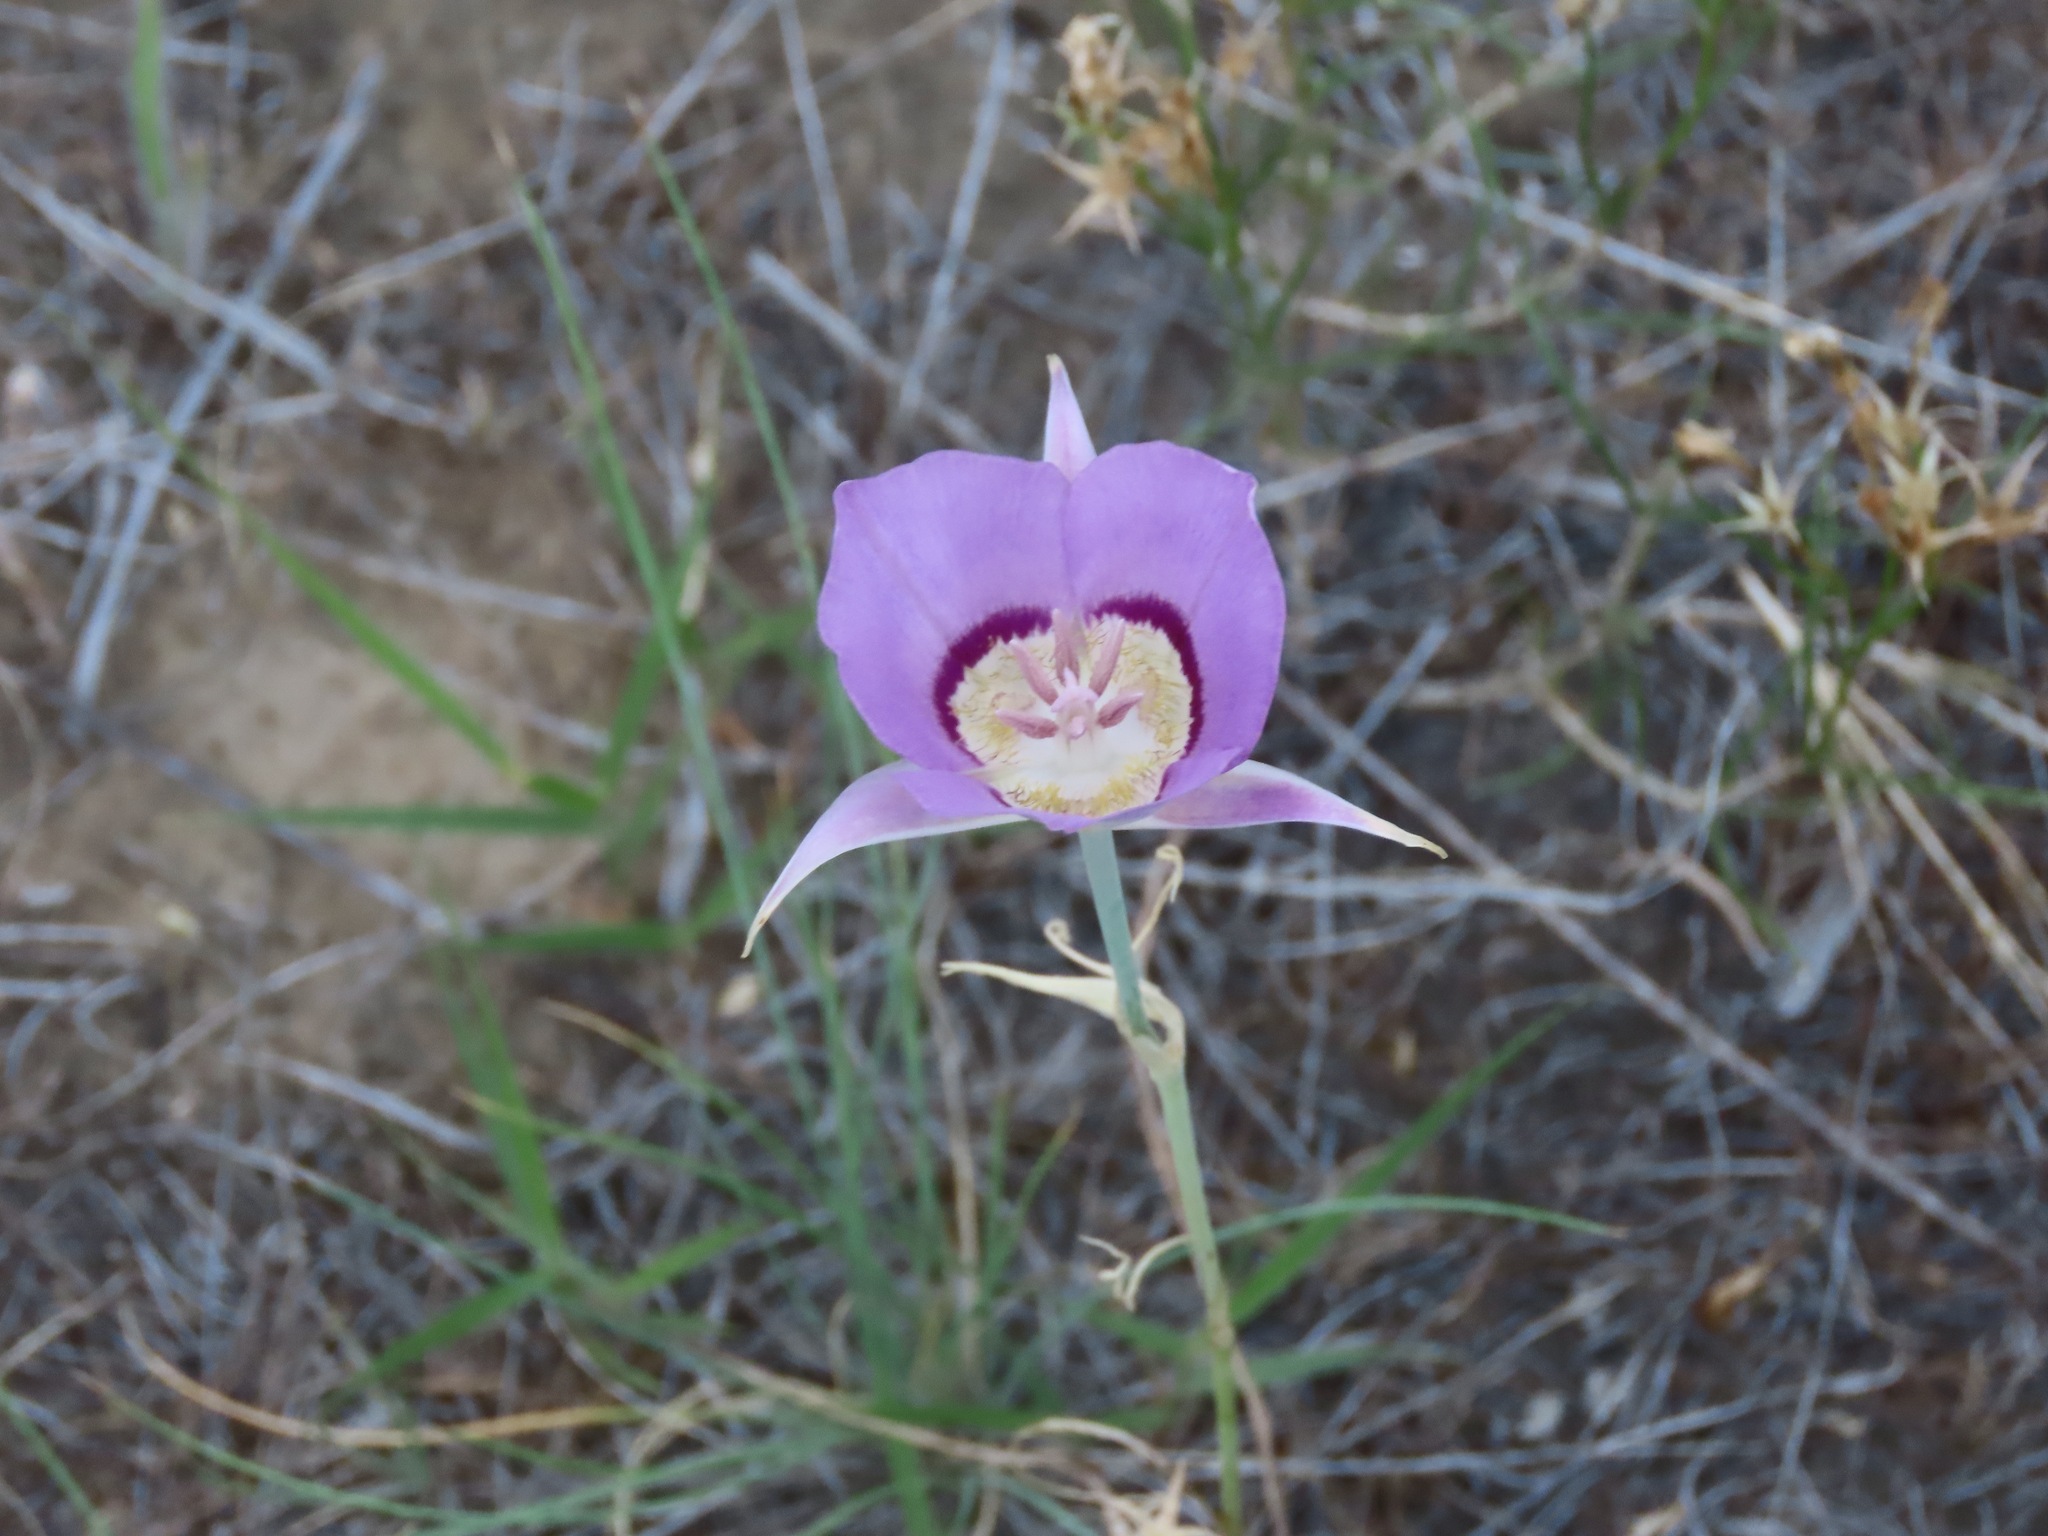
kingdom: Plantae
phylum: Tracheophyta
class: Liliopsida
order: Liliales
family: Liliaceae
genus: Calochortus
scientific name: Calochortus macrocarpus
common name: Green-band mariposa lily
